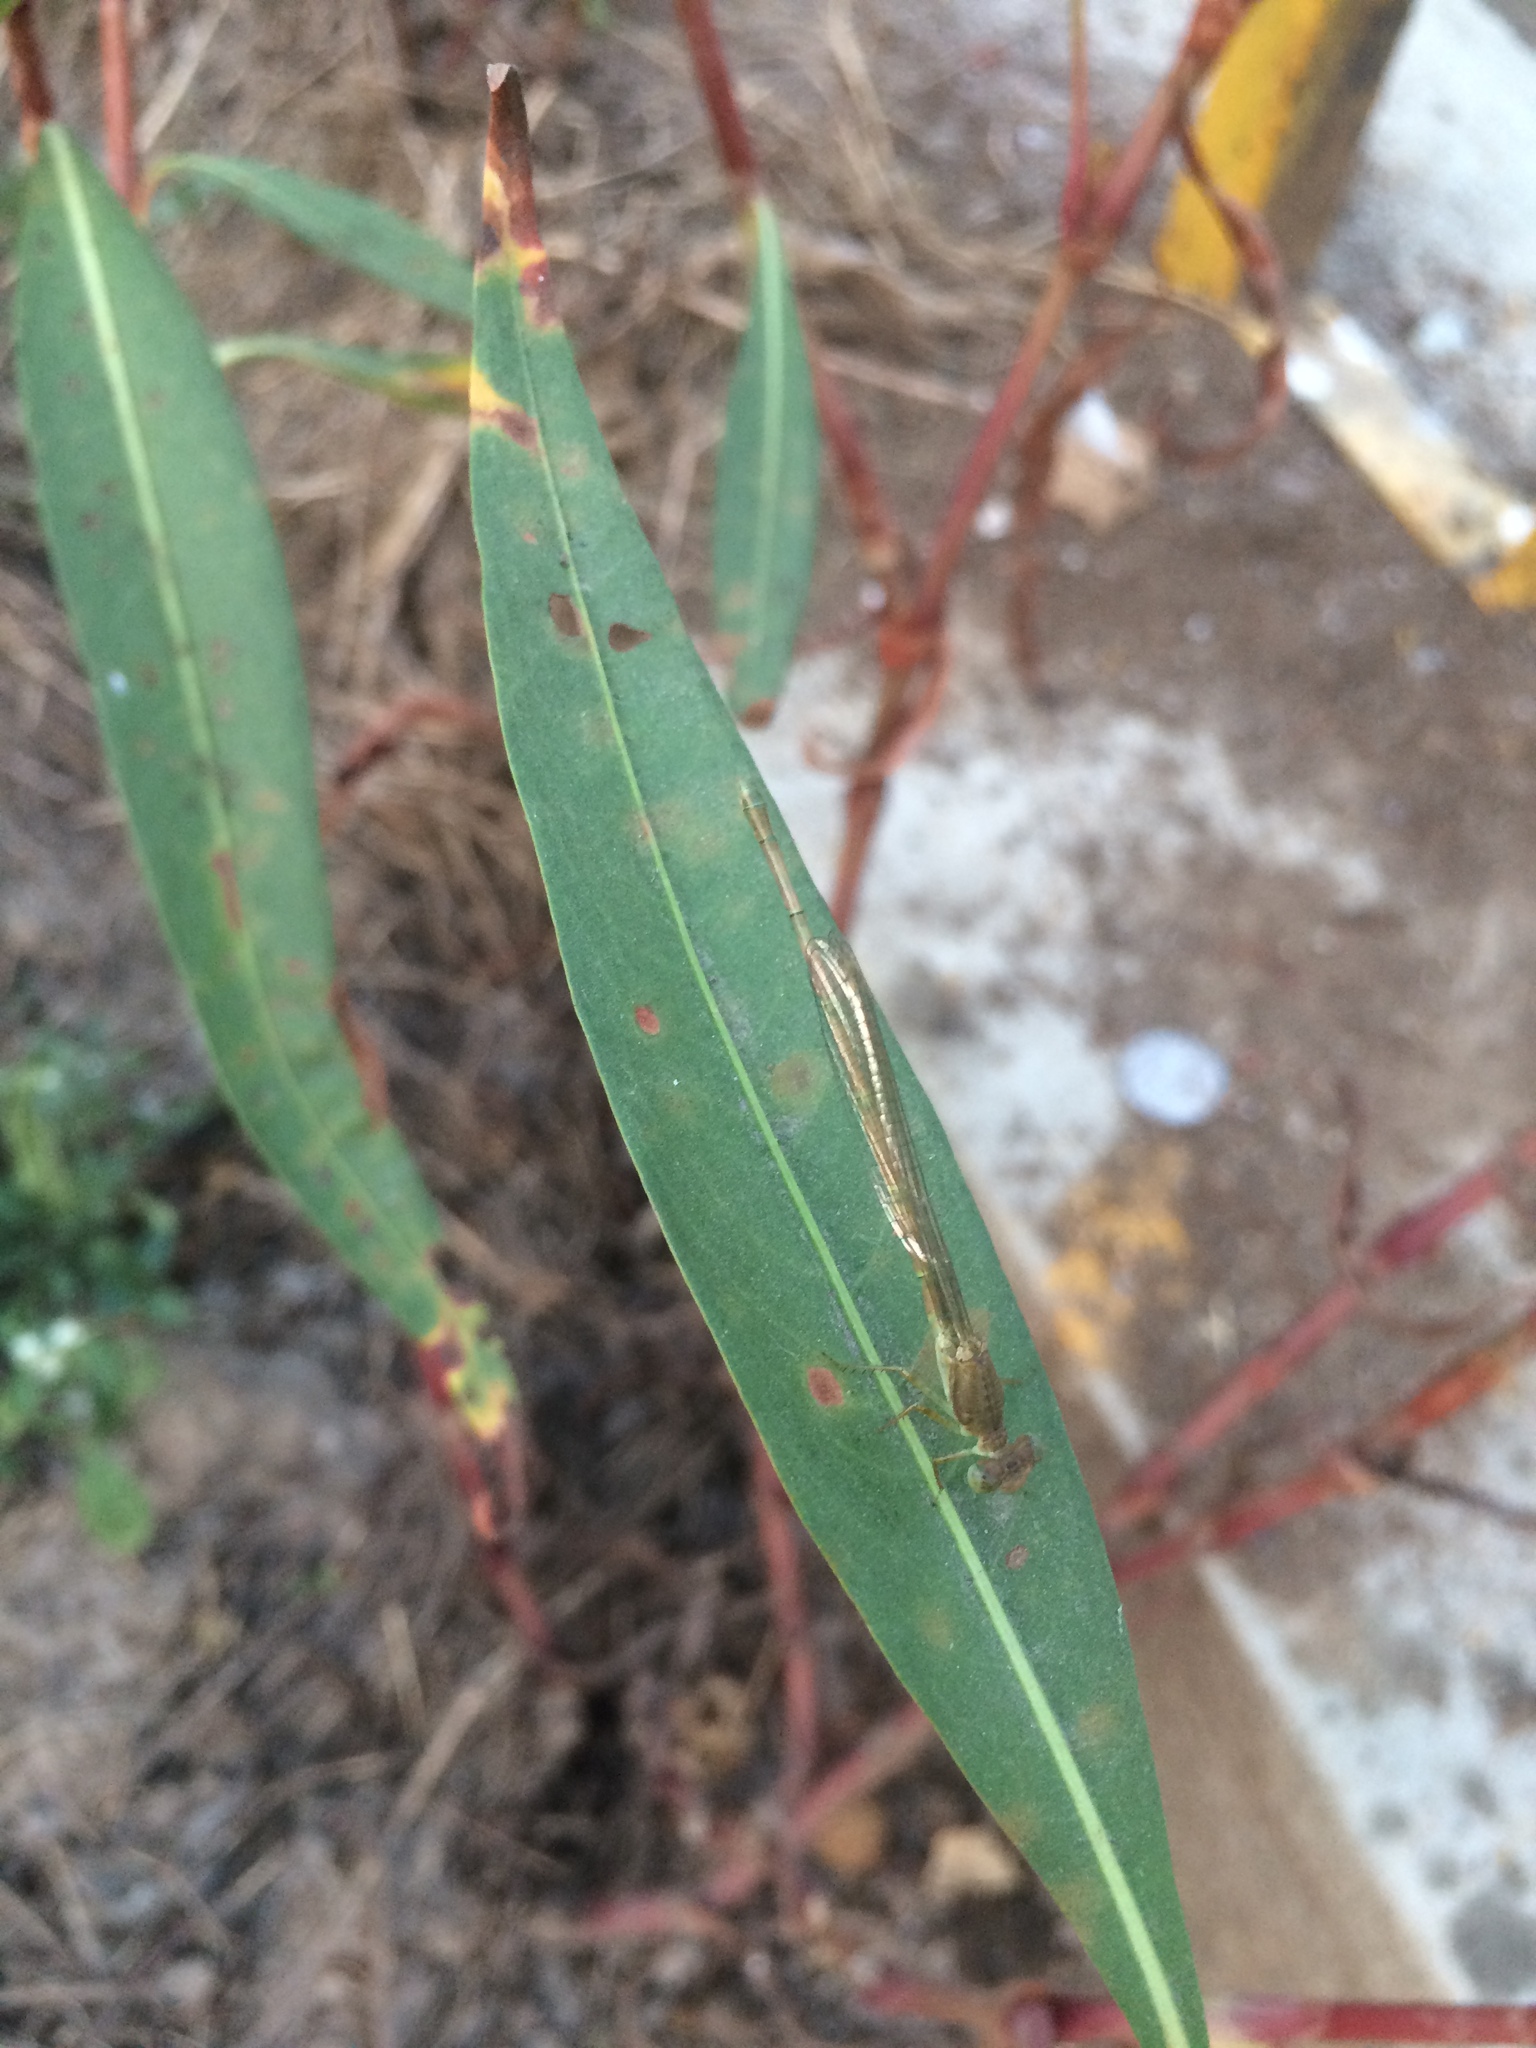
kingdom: Animalia
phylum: Arthropoda
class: Insecta
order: Odonata
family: Coenagrionidae
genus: Ceriagrion
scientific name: Ceriagrion coromandelianum
